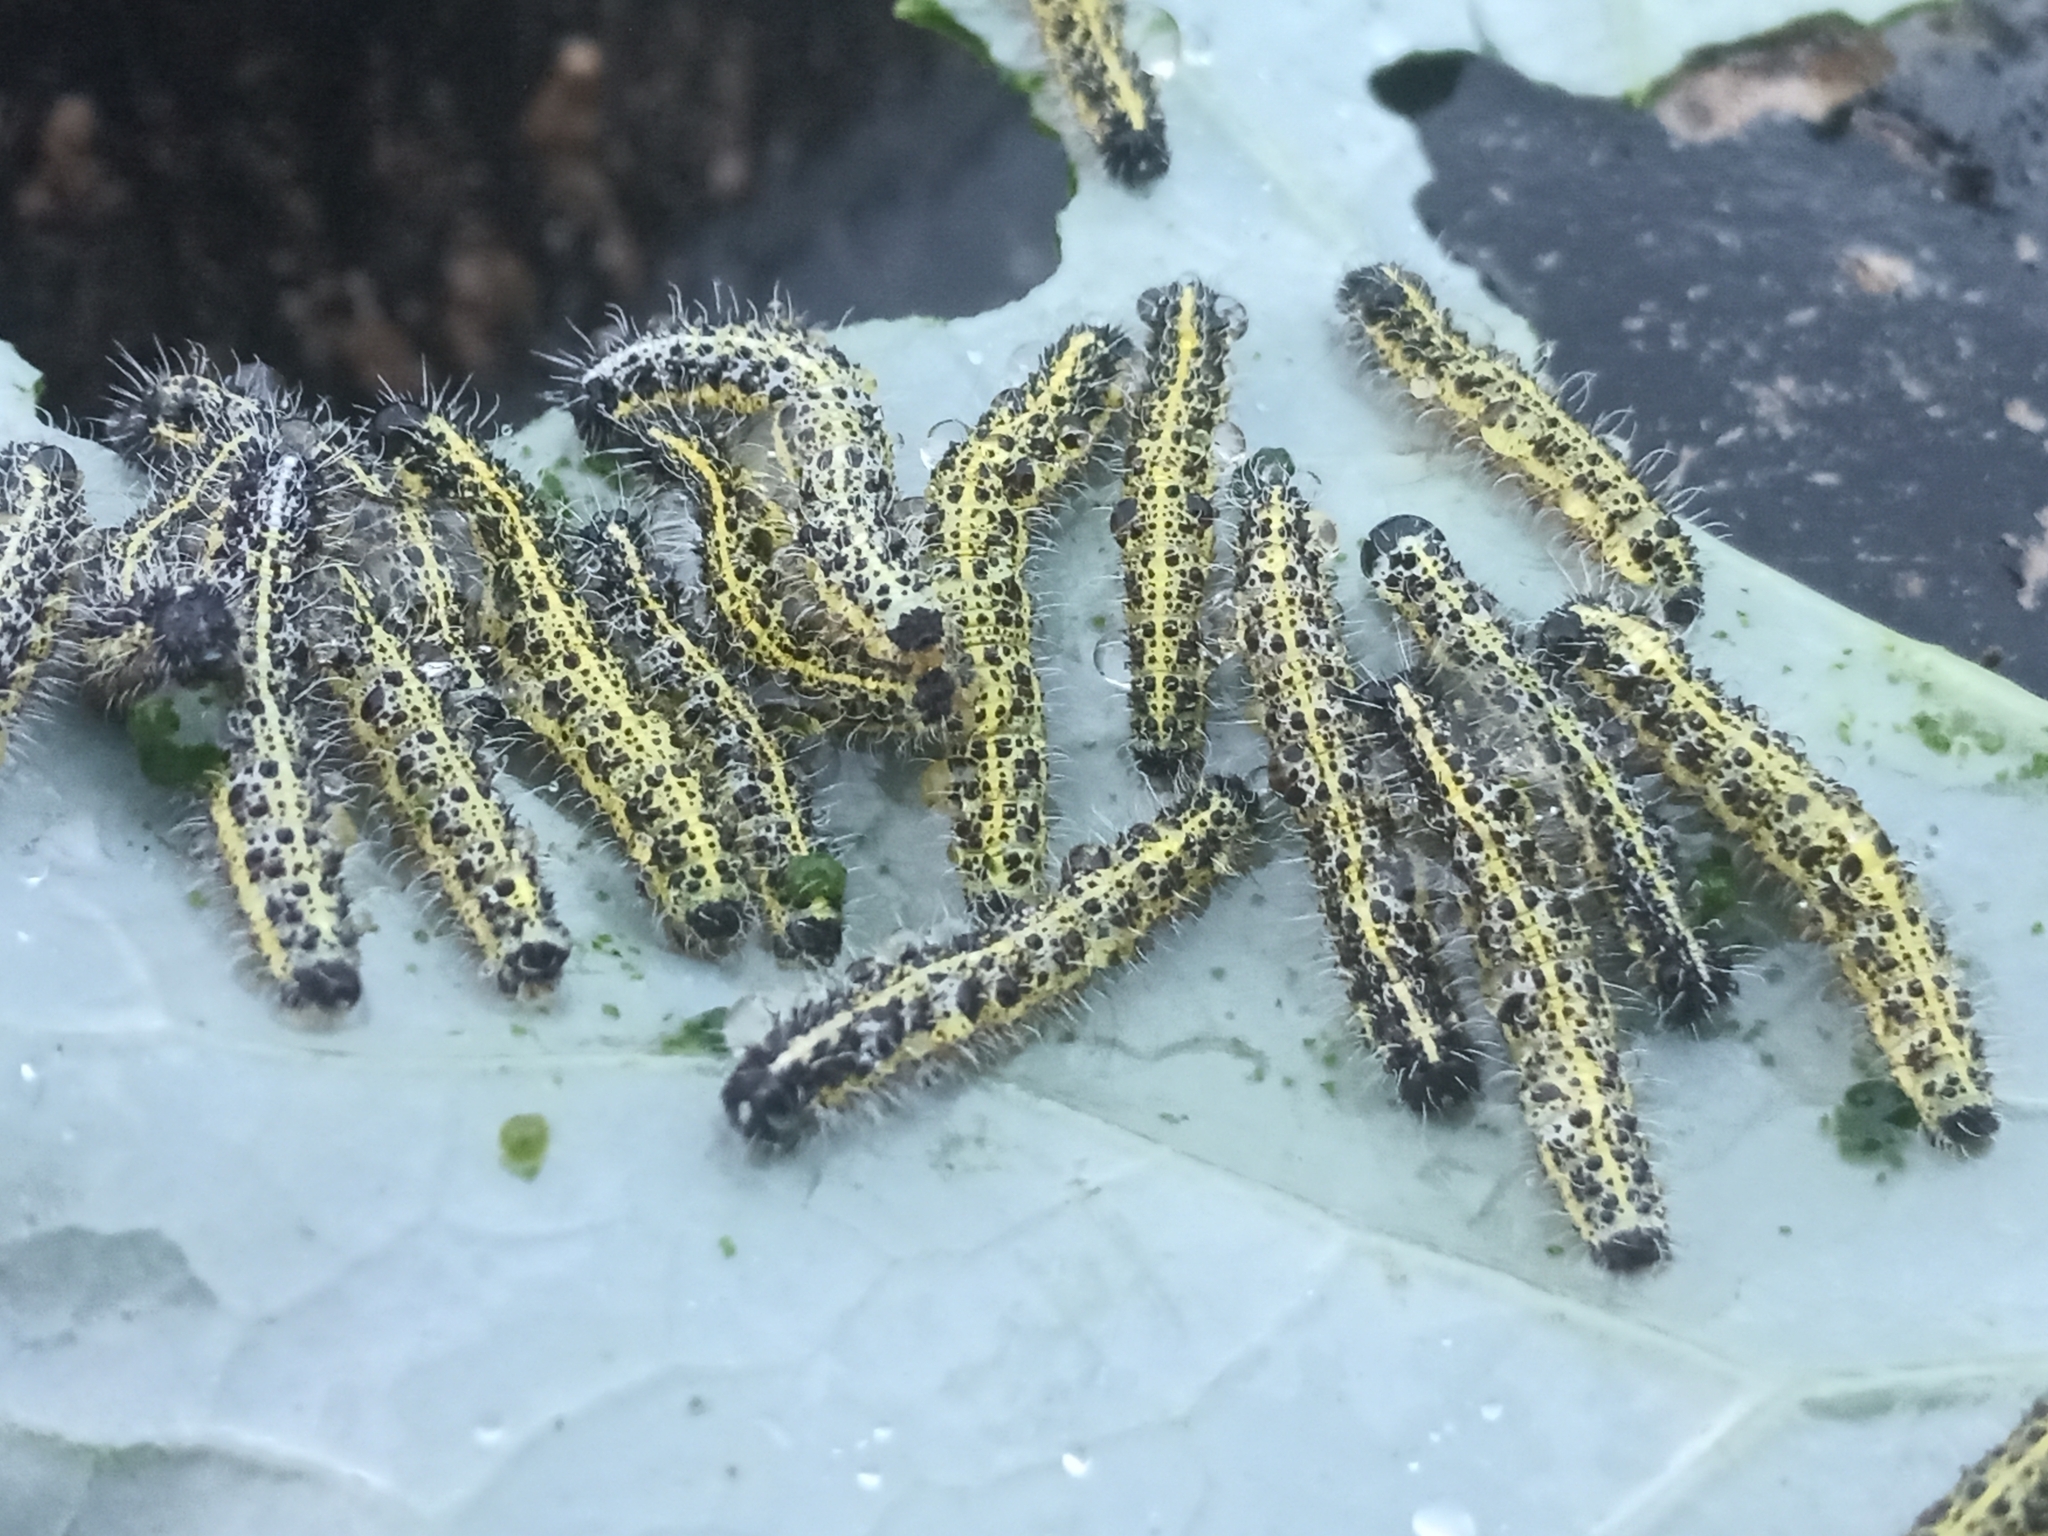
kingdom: Animalia
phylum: Arthropoda
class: Insecta
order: Lepidoptera
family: Pieridae
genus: Pieris
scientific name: Pieris brassicae
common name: Large white
